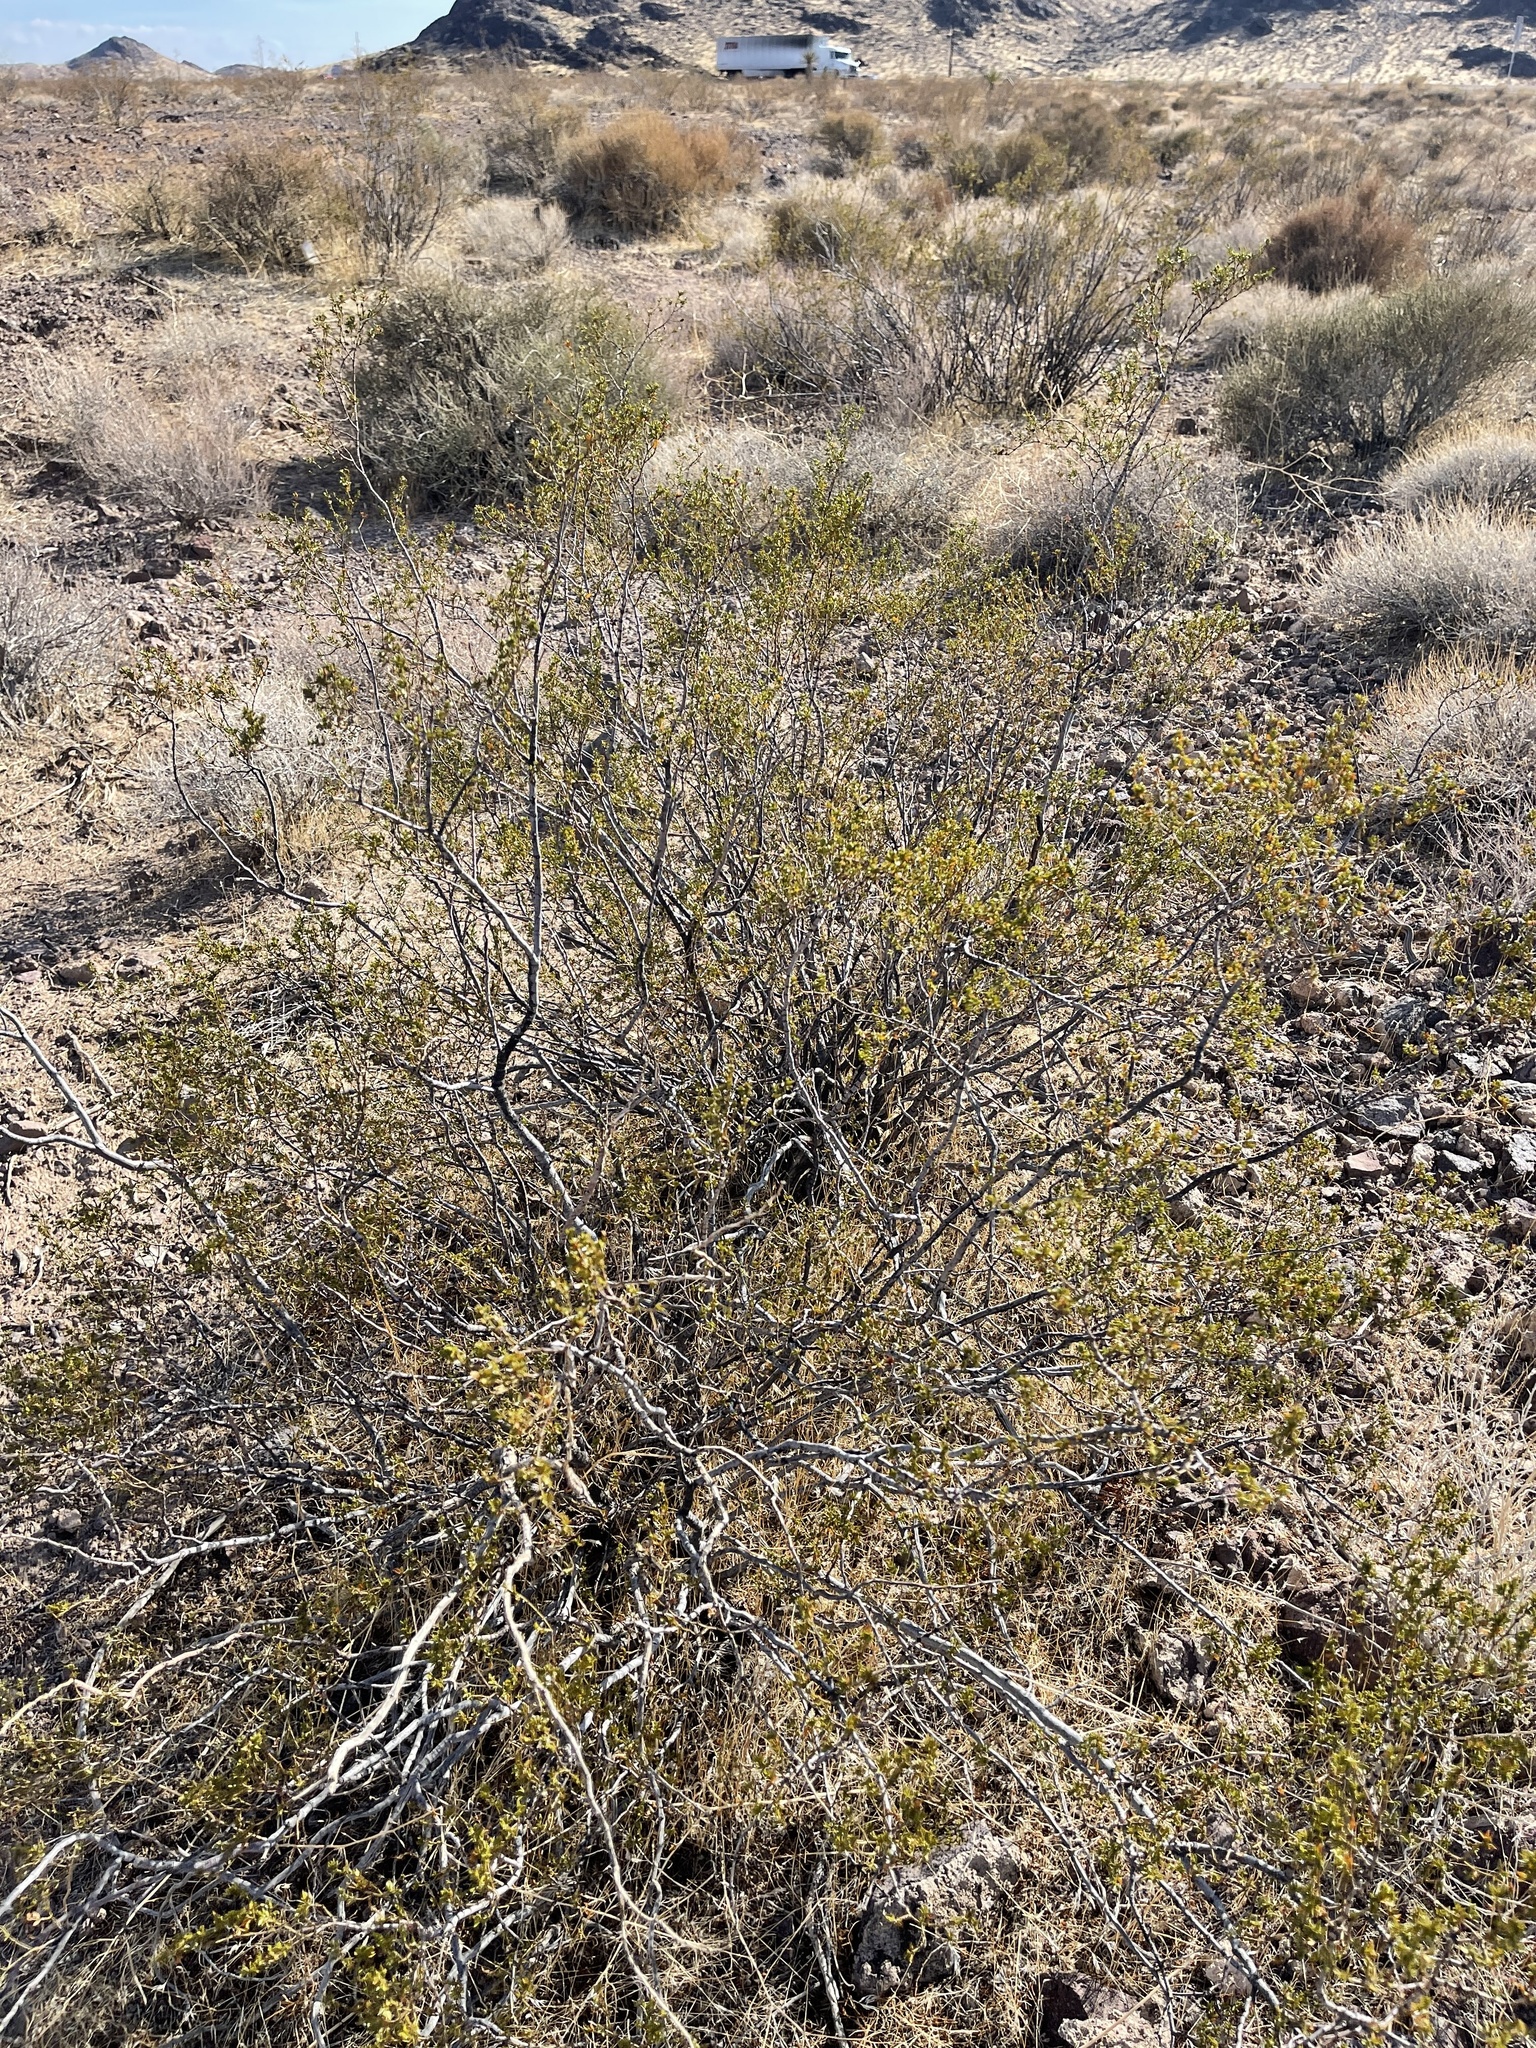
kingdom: Plantae
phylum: Tracheophyta
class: Magnoliopsida
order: Zygophyllales
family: Zygophyllaceae
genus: Larrea
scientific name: Larrea tridentata
